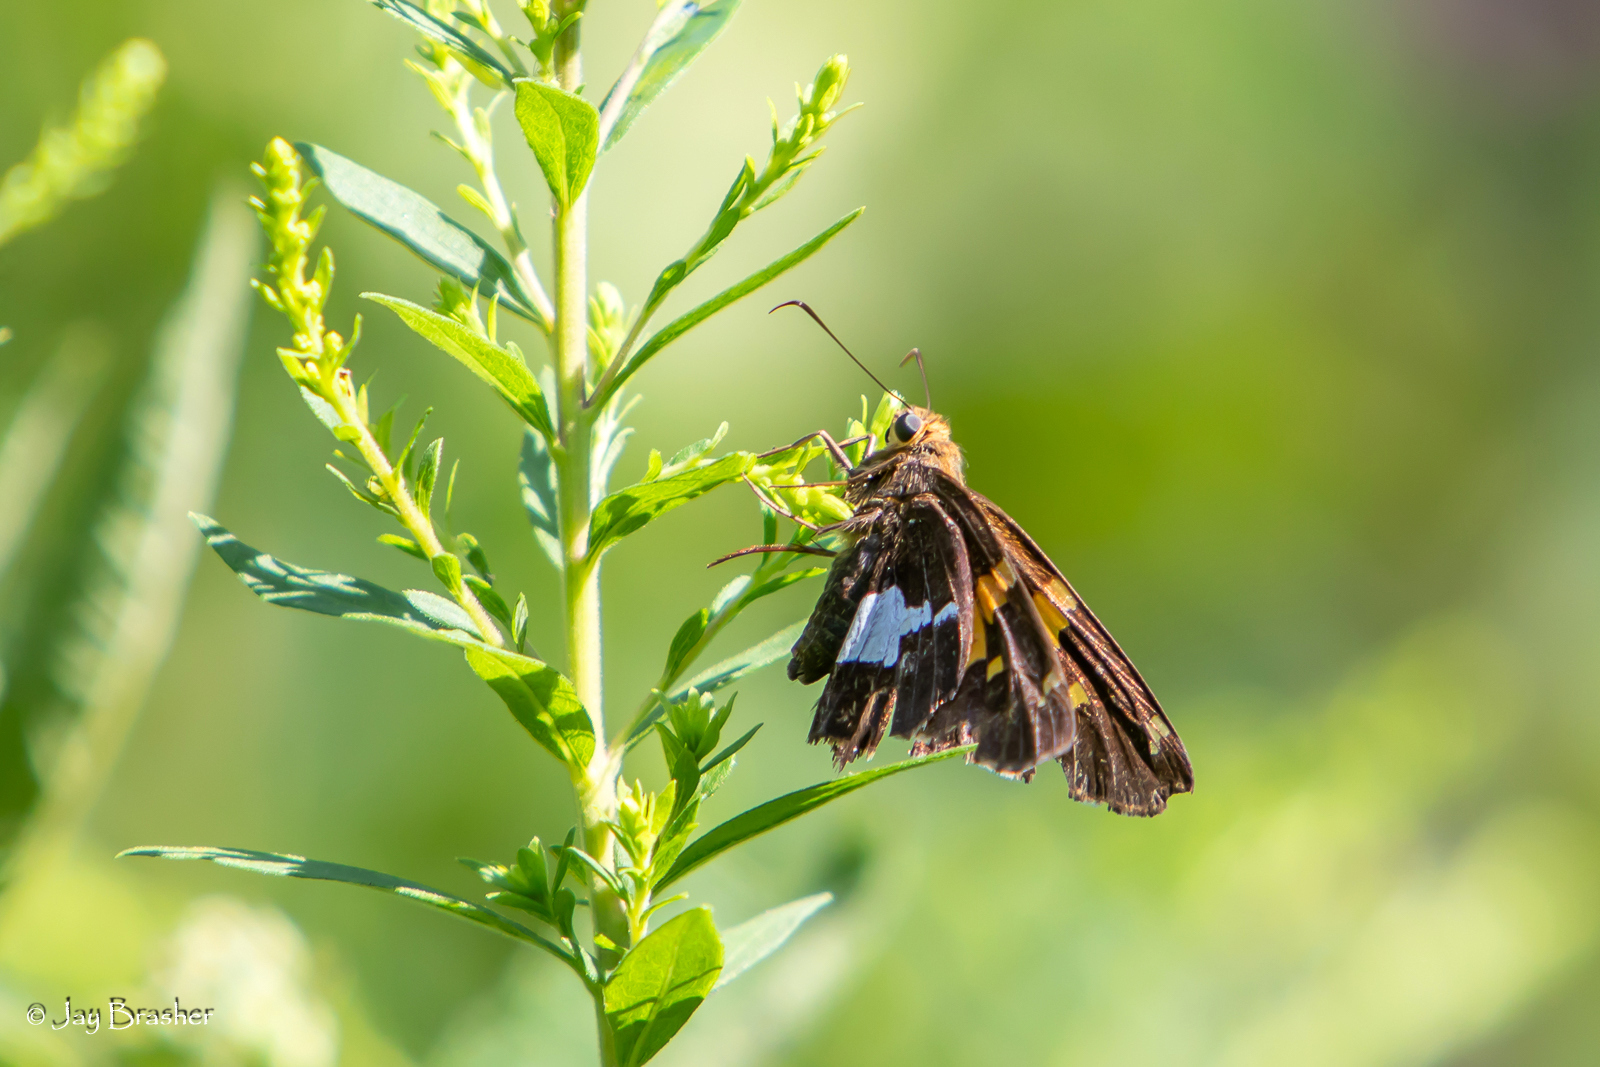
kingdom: Animalia
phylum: Arthropoda
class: Insecta
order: Lepidoptera
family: Hesperiidae
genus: Epargyreus
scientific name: Epargyreus clarus
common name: Silver-spotted skipper
